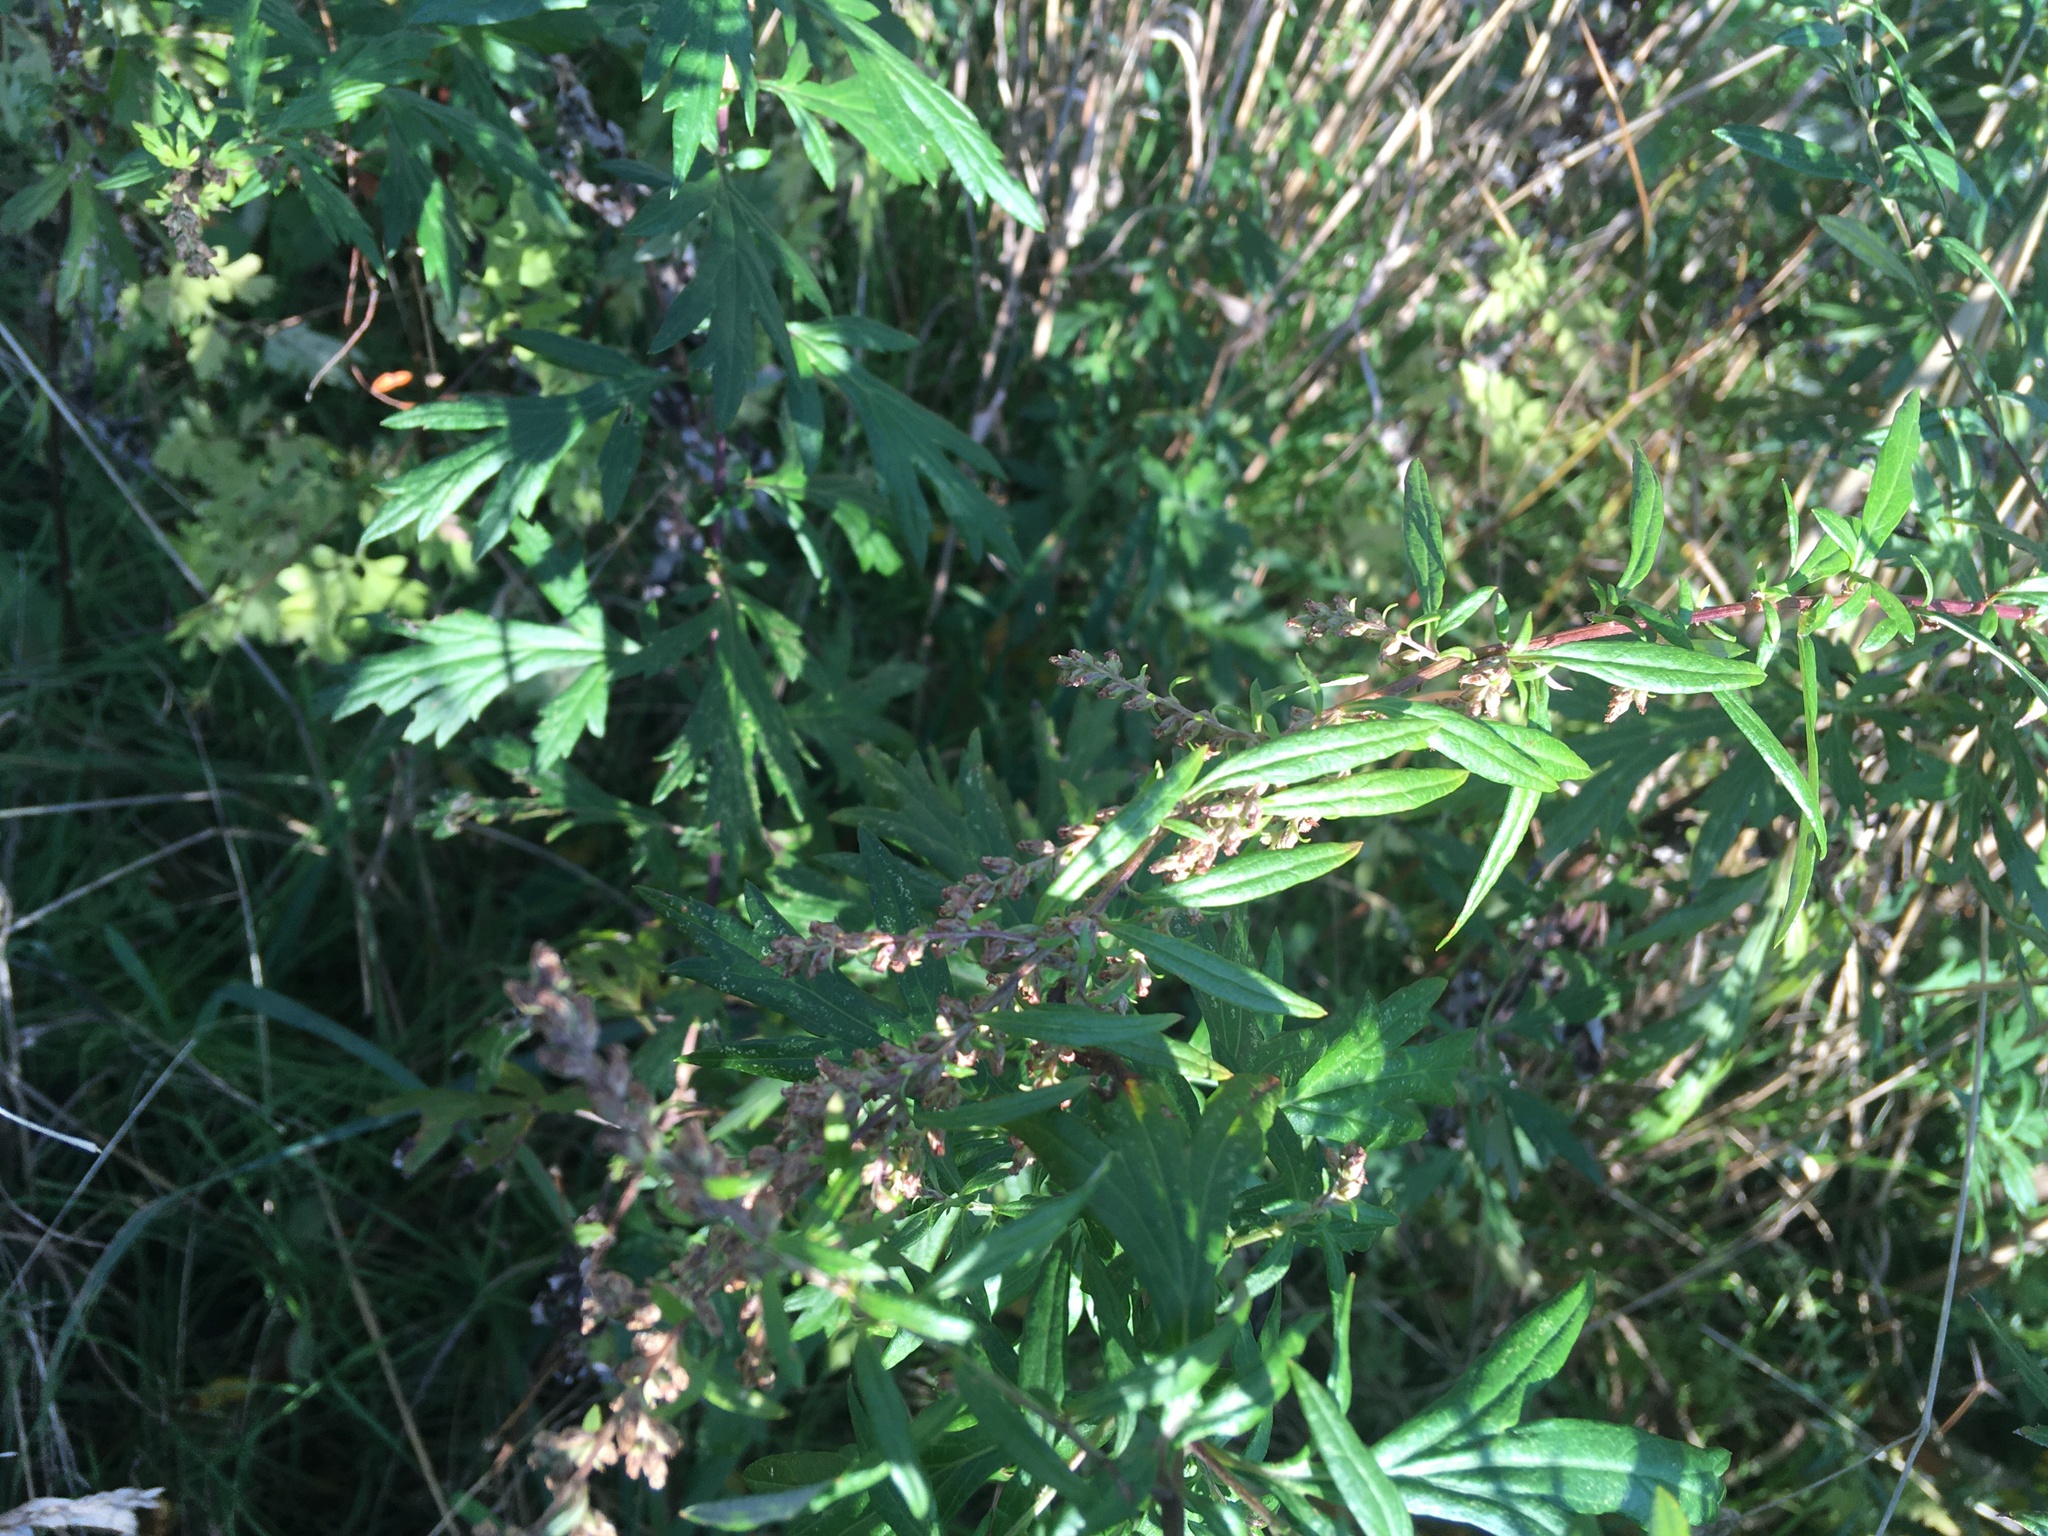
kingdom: Plantae
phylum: Tracheophyta
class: Magnoliopsida
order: Asterales
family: Asteraceae
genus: Artemisia
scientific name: Artemisia vulgaris
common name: Mugwort
